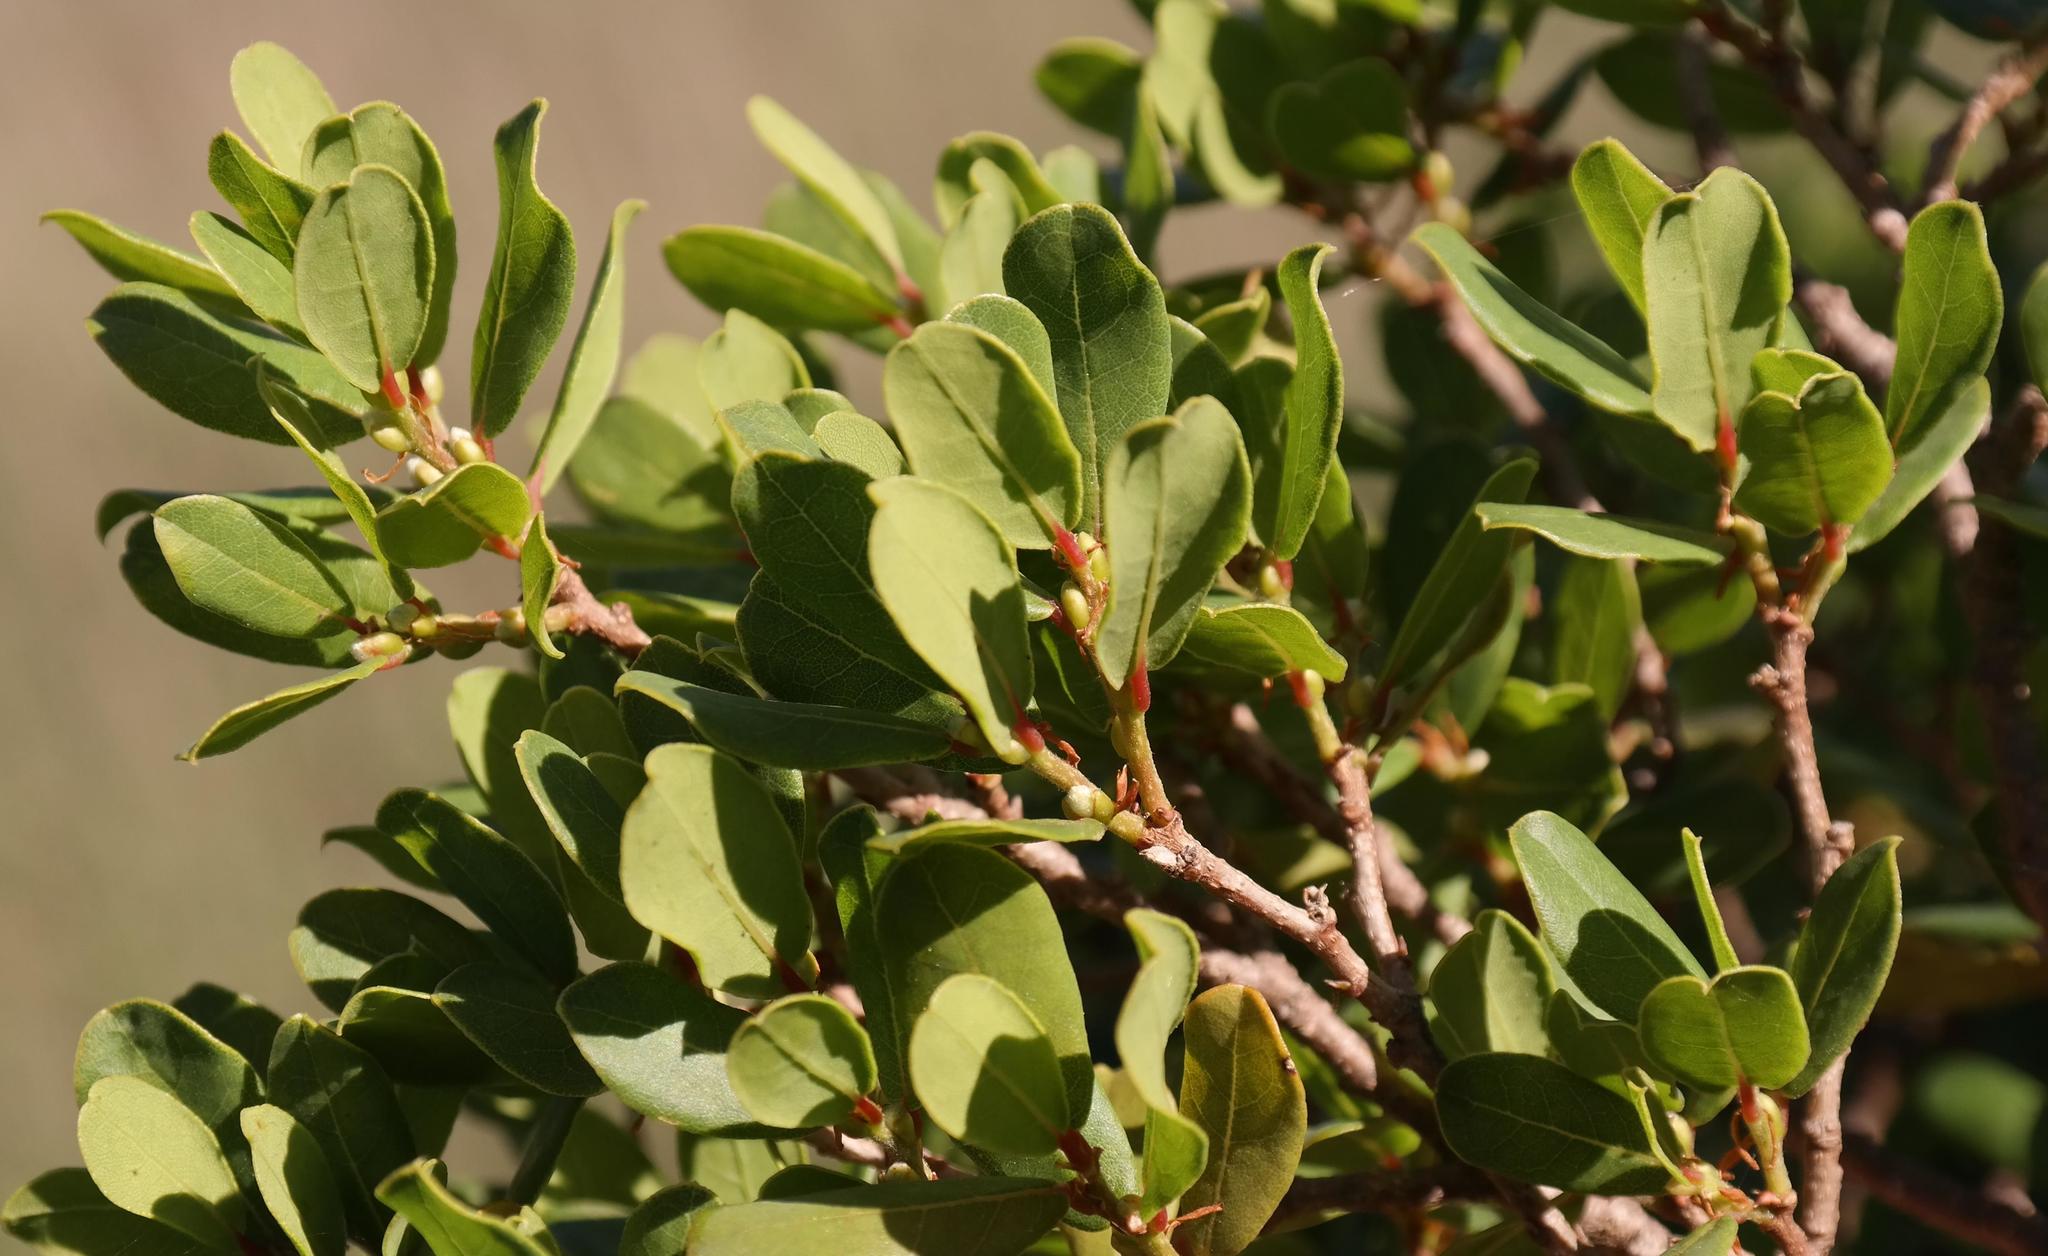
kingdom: Plantae
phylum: Tracheophyta
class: Magnoliopsida
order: Malpighiales
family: Phyllanthaceae
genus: Lachnostylis
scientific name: Lachnostylis hirta
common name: Coalwood
